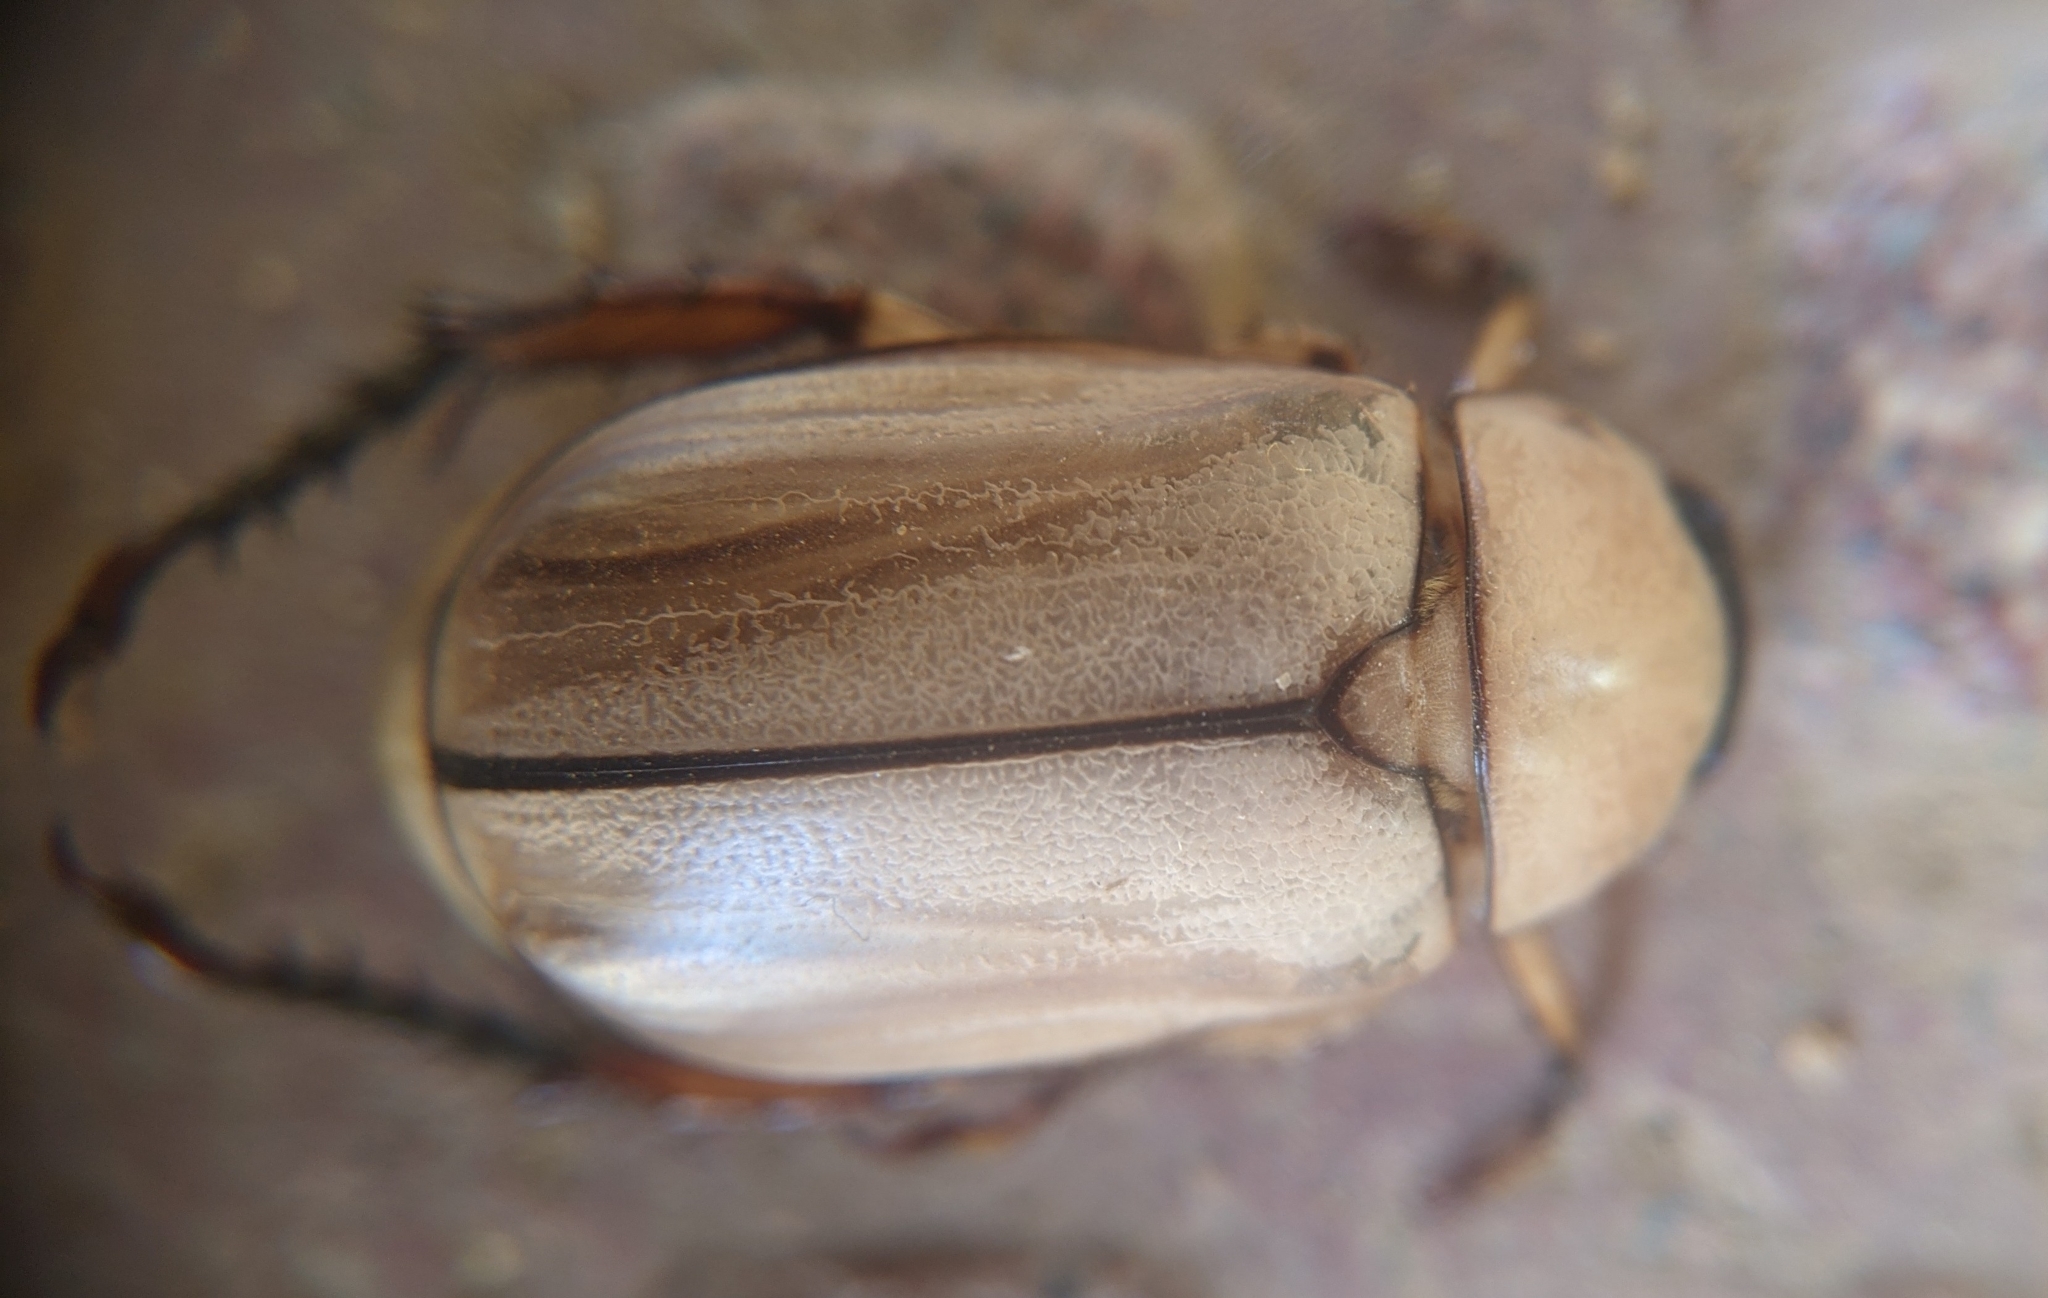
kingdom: Animalia
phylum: Arthropoda
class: Insecta
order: Coleoptera
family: Scarabaeidae
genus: Anomala
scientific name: Anomala polita
